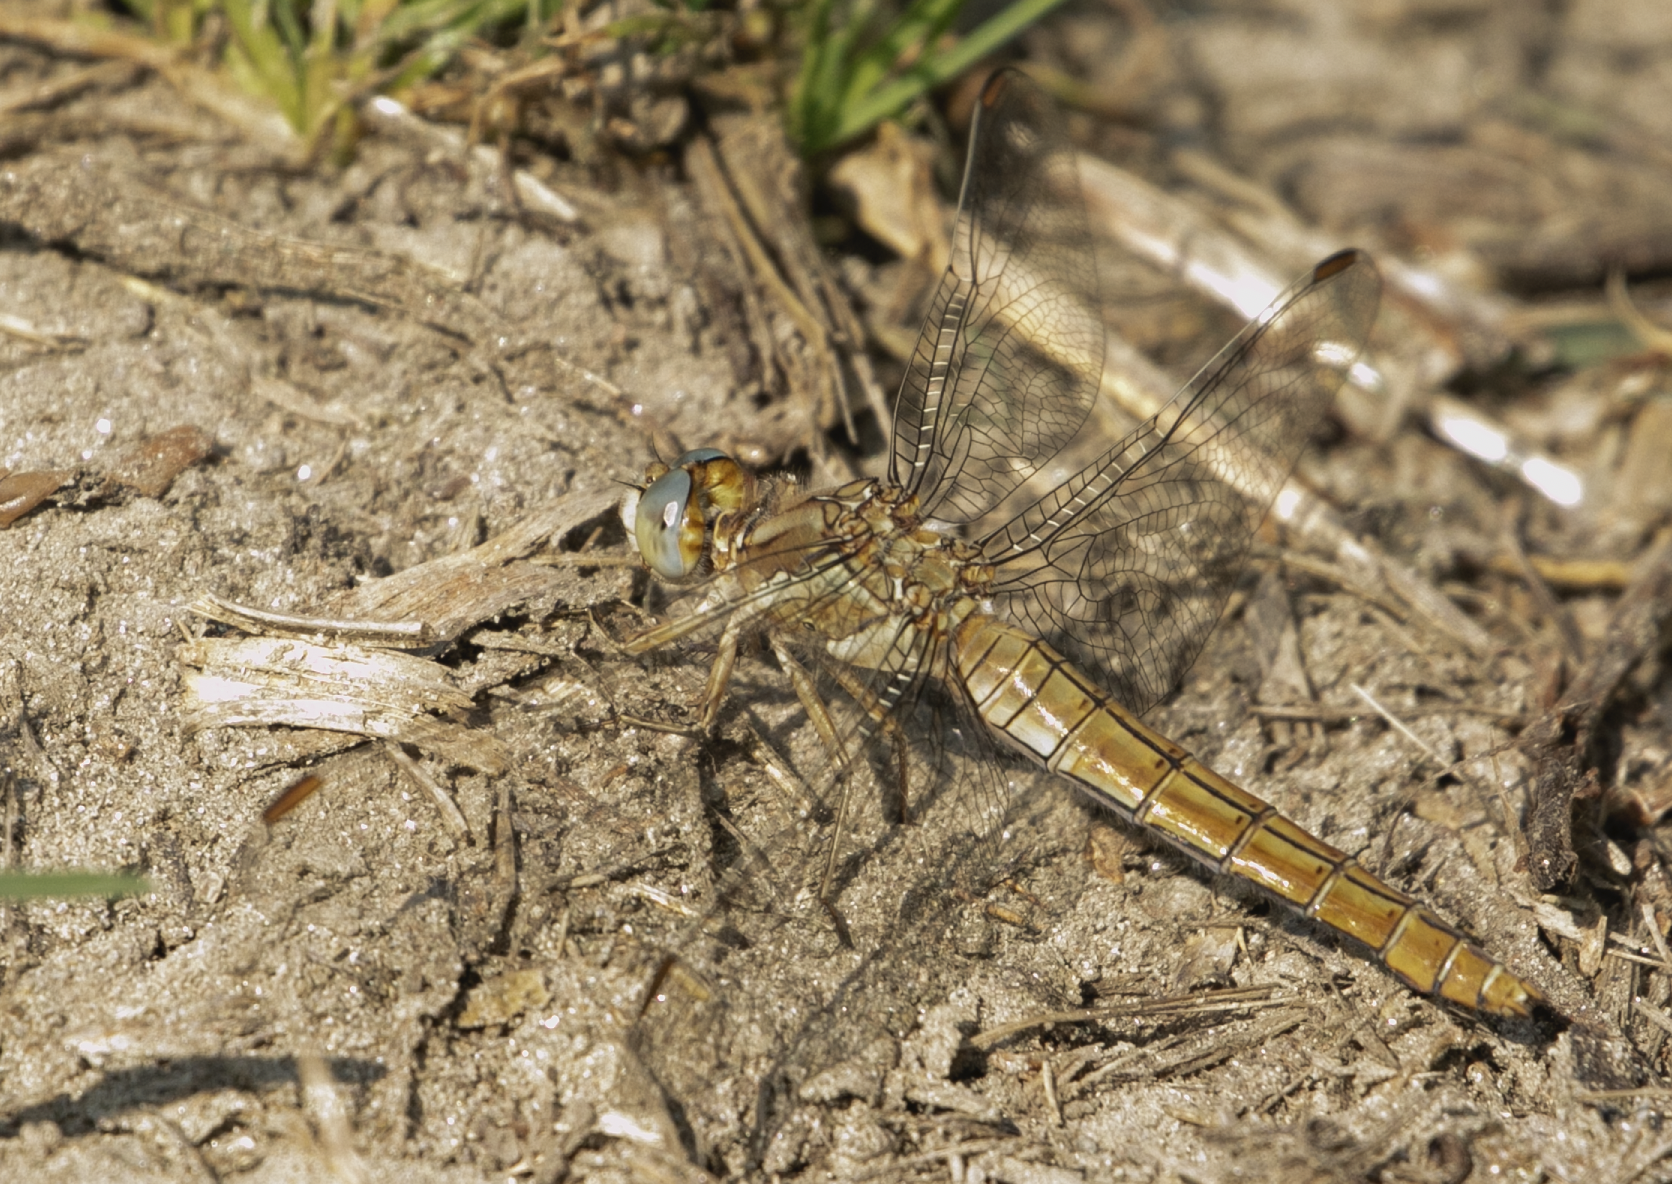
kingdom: Animalia
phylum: Arthropoda
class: Insecta
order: Odonata
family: Libellulidae
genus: Orthetrum
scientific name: Orthetrum brunneum
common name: Southern skimmer
